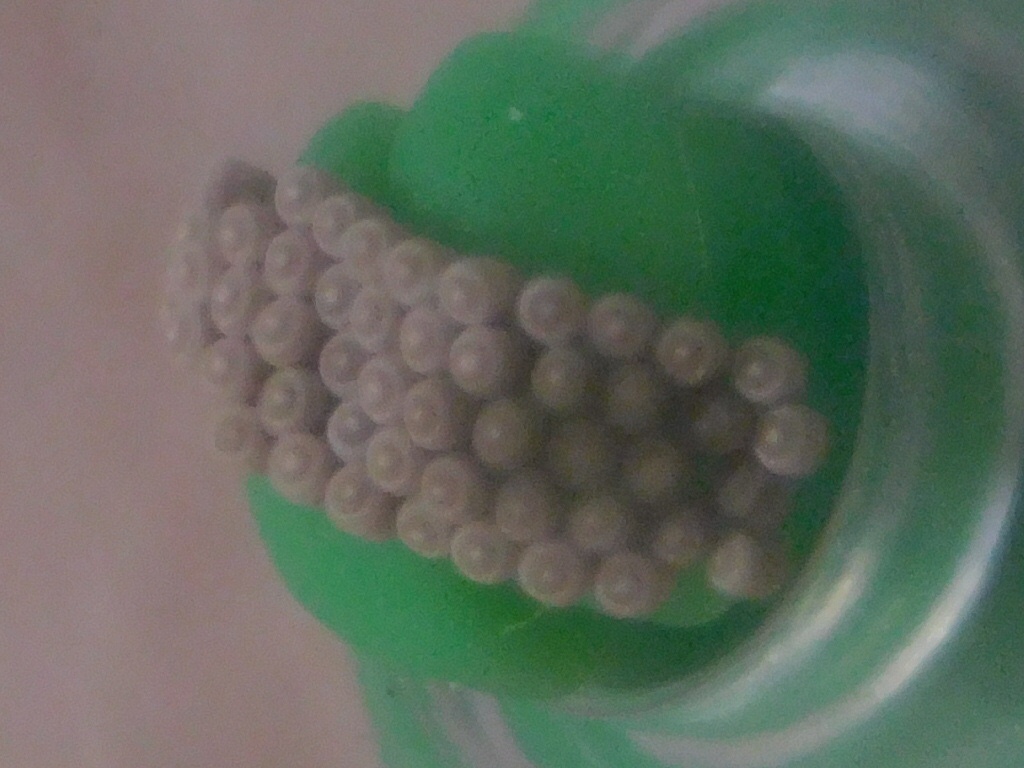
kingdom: Animalia
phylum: Arthropoda
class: Insecta
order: Hemiptera
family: Pentatomidae
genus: Thyanta
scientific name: Thyanta perditor
